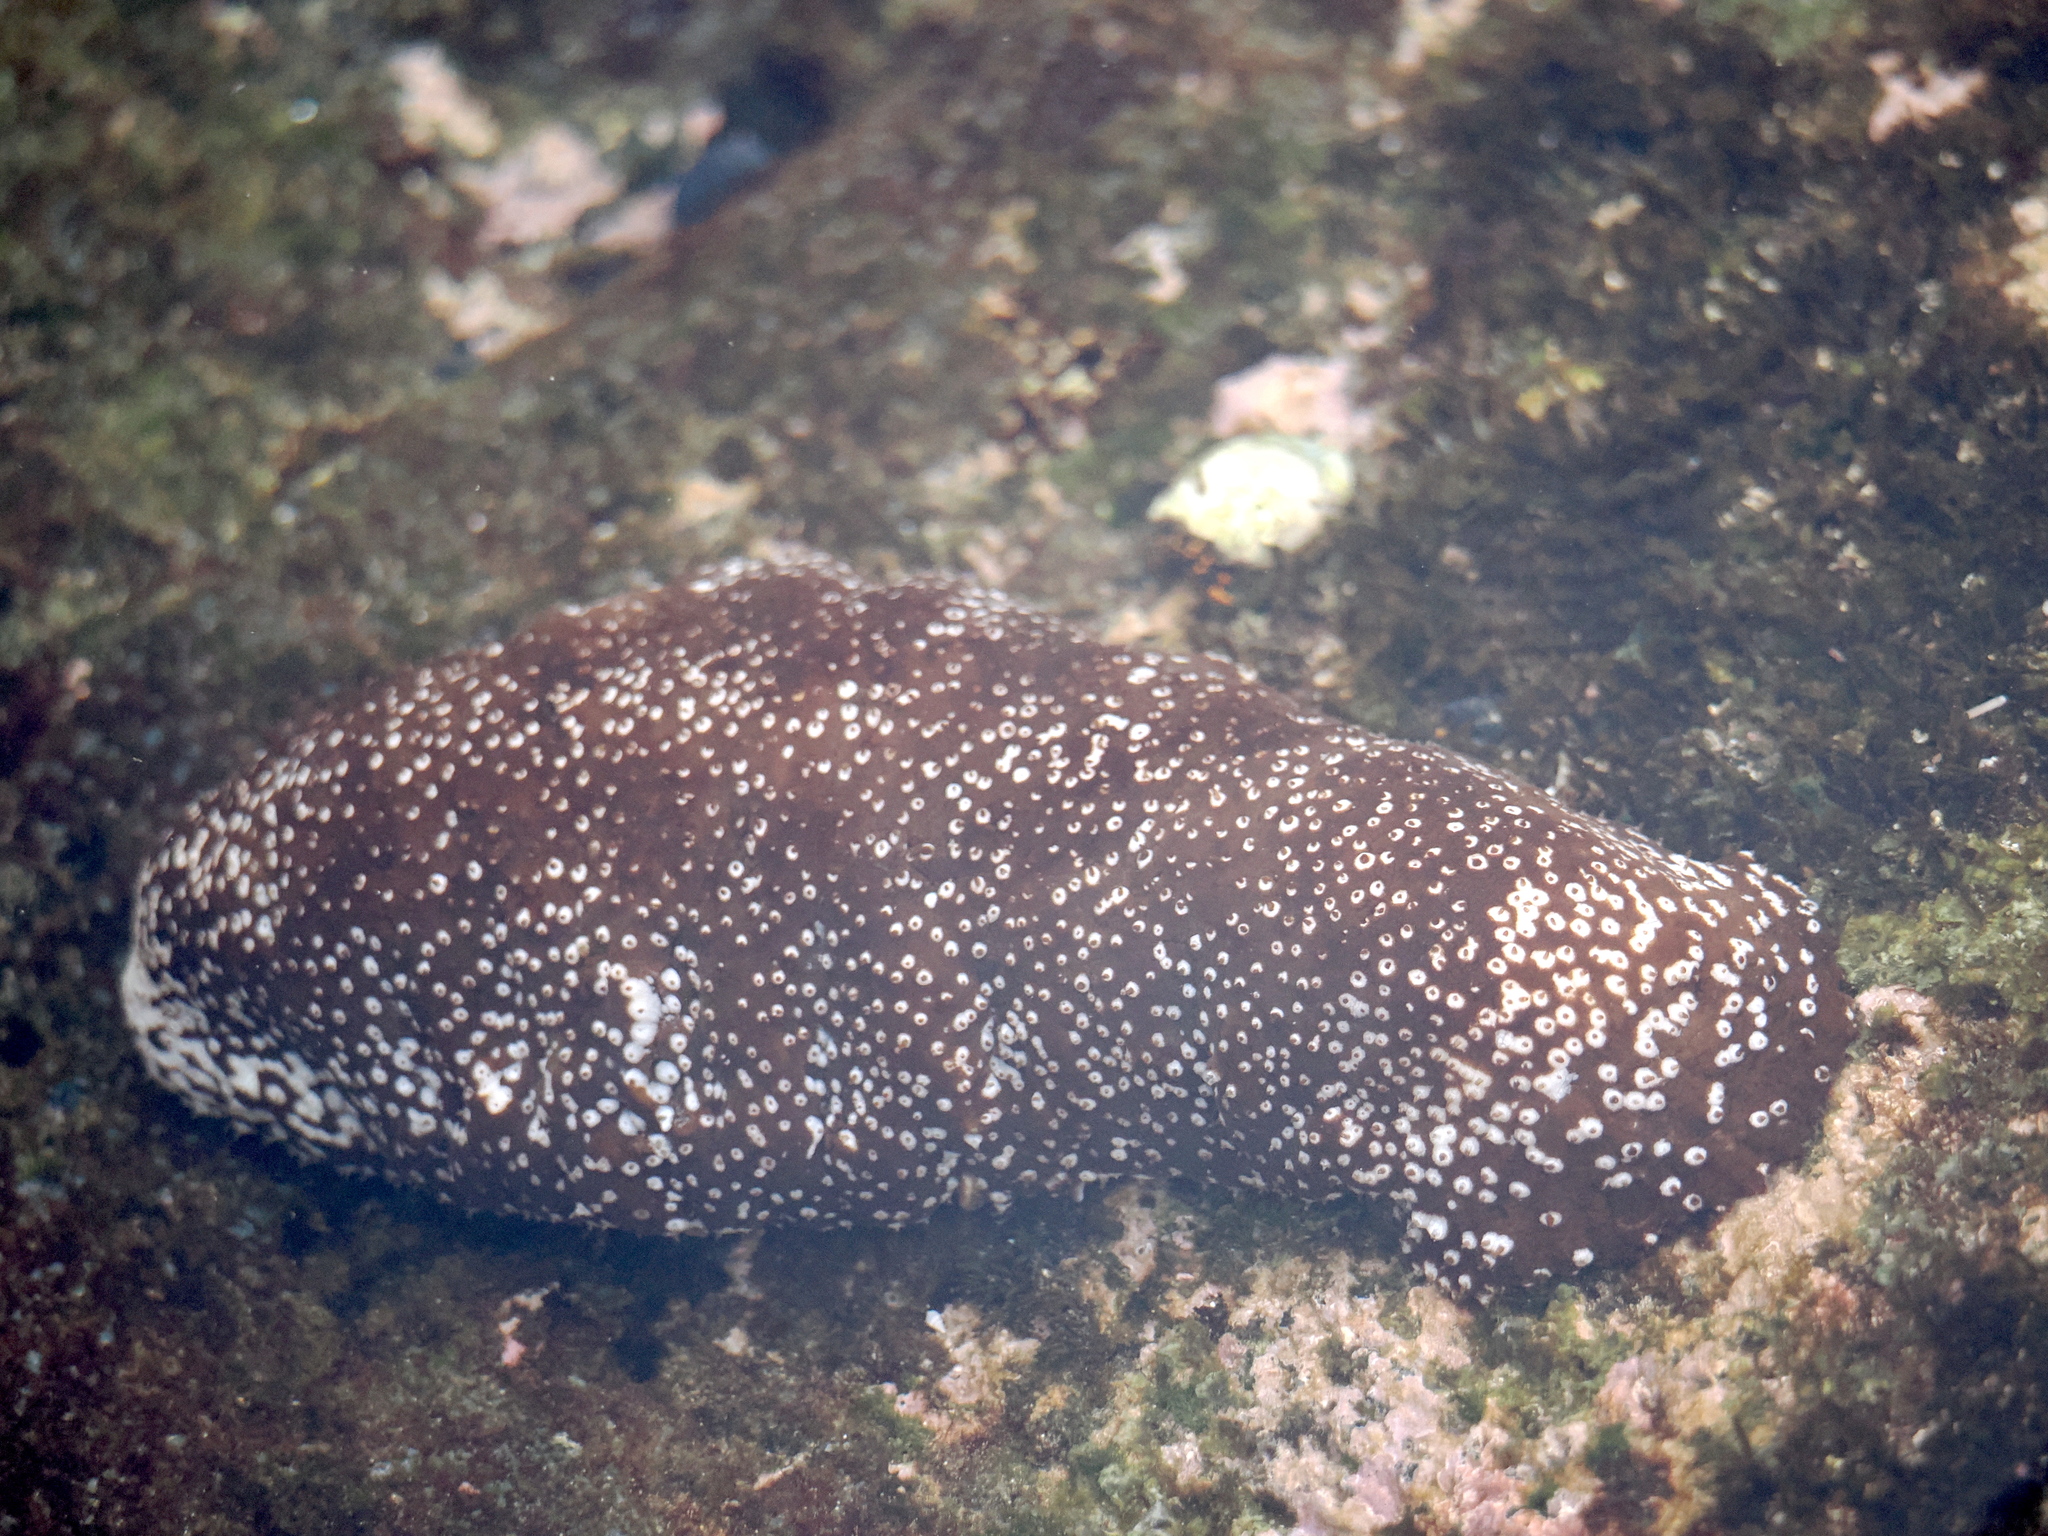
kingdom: Animalia
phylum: Echinodermata
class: Holothuroidea
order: Holothuriida
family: Holothuriidae
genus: Actinopyga
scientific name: Actinopyga varians
